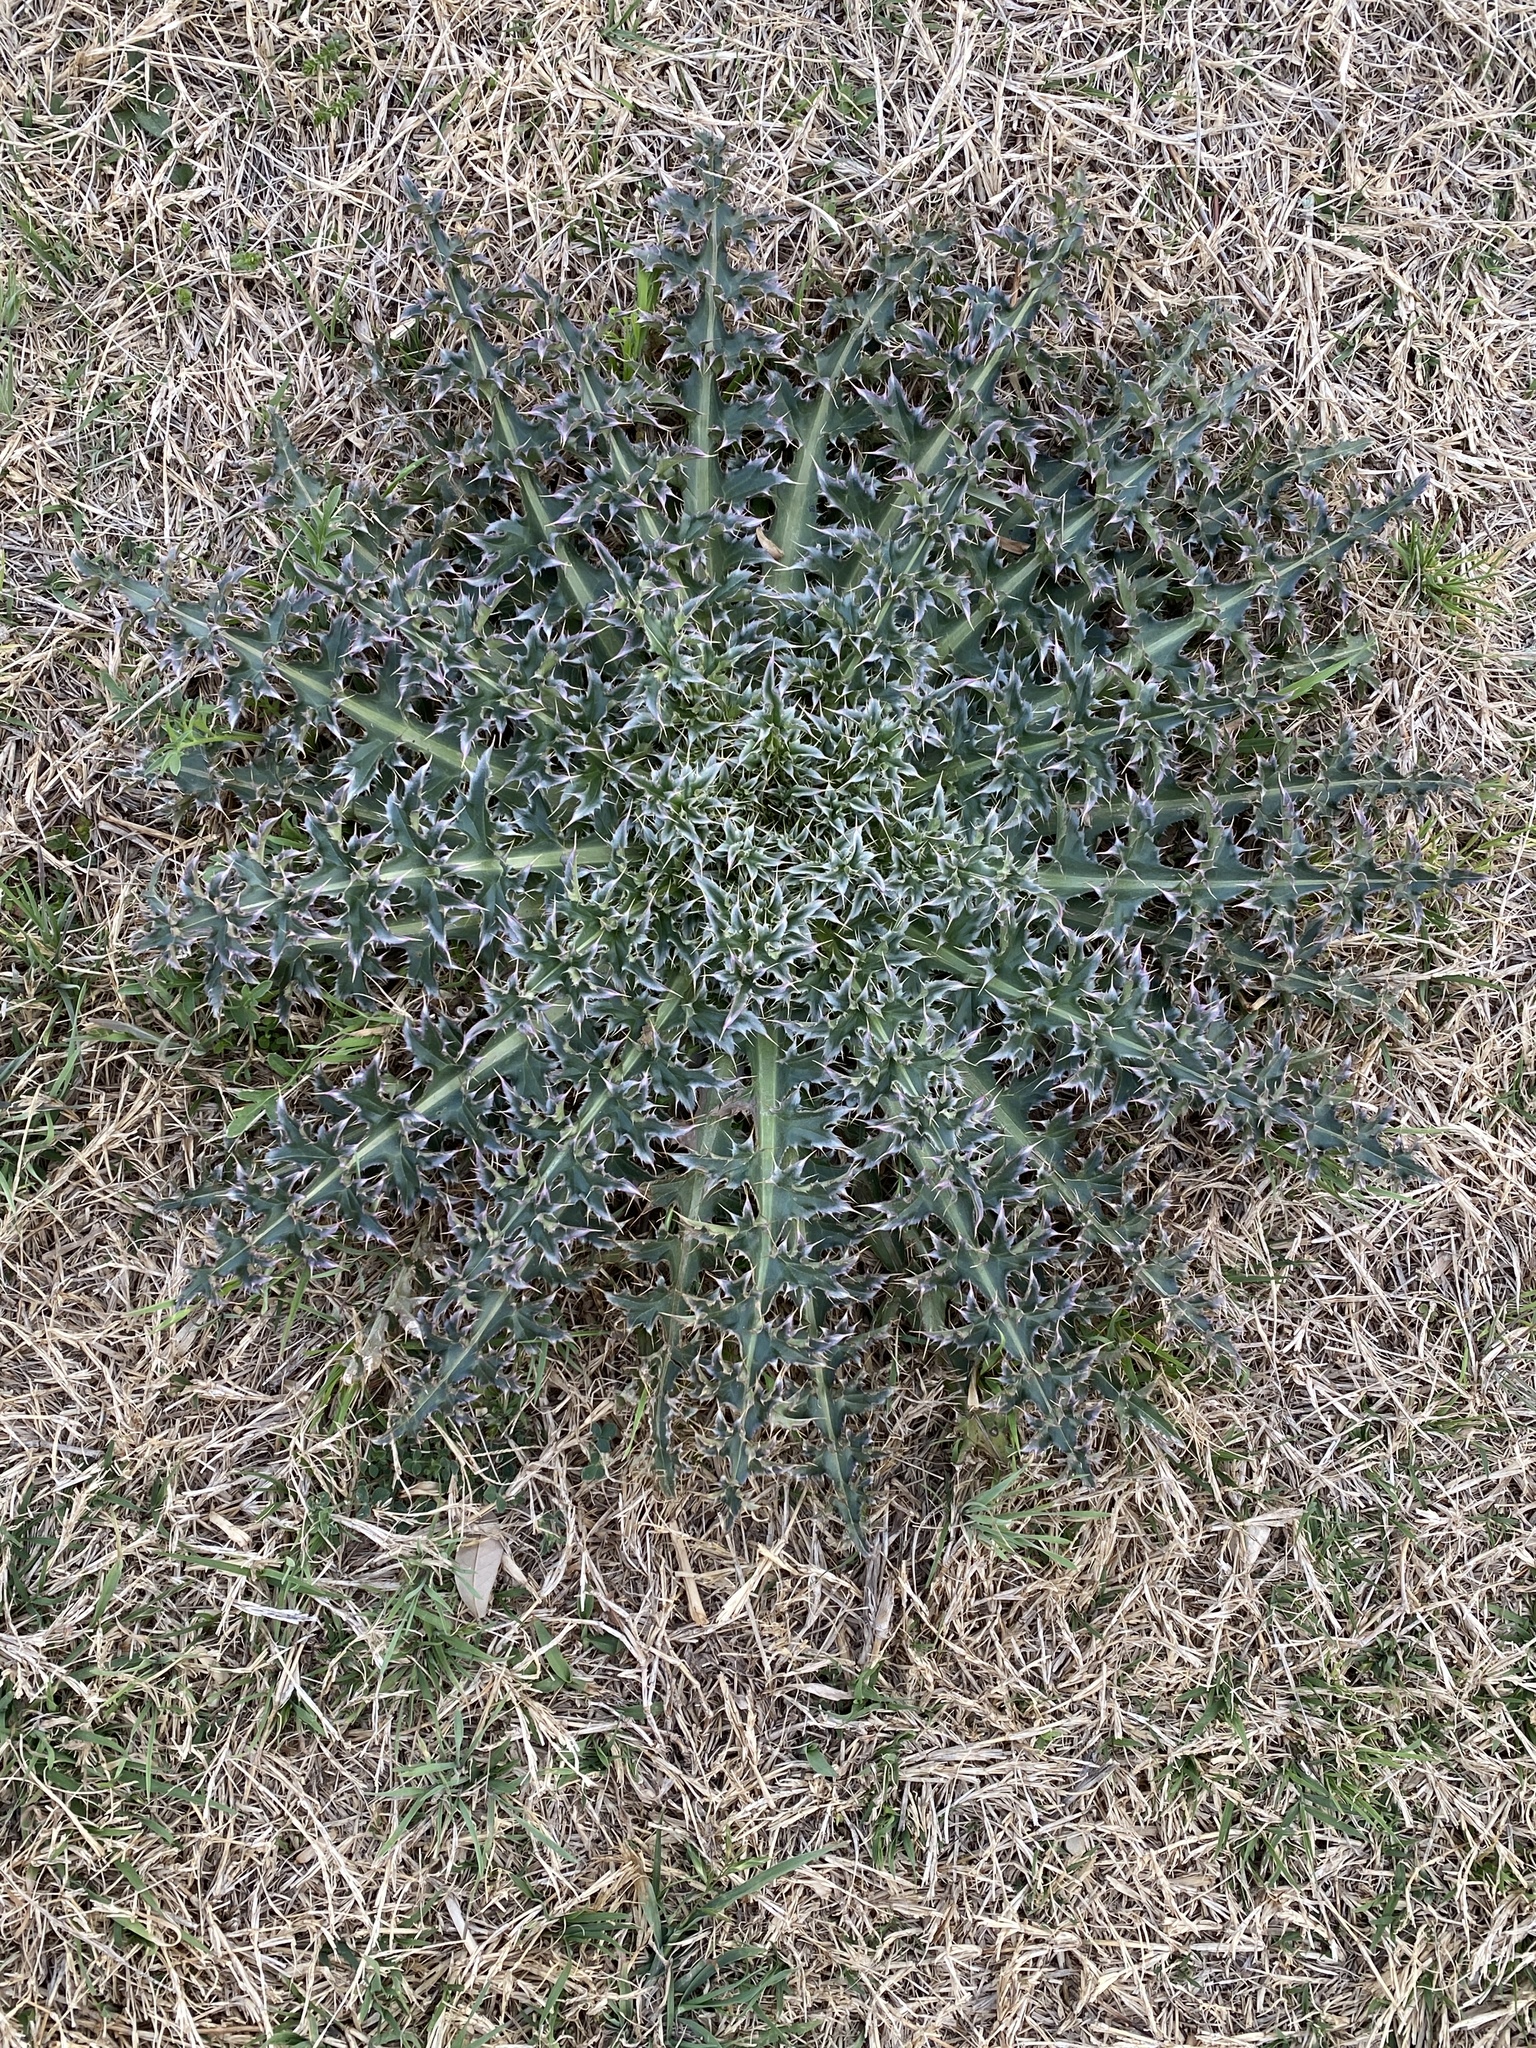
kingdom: Plantae
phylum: Tracheophyta
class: Magnoliopsida
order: Asterales
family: Asteraceae
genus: Carduus
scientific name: Carduus nutans
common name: Musk thistle
